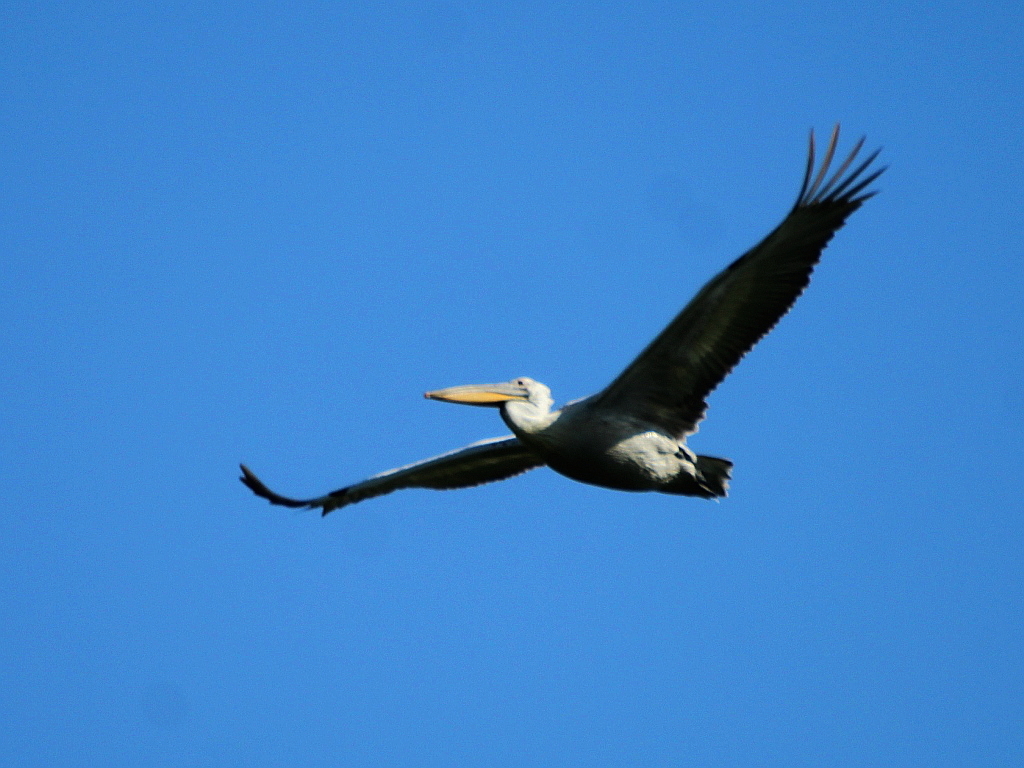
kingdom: Animalia
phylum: Chordata
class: Aves
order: Pelecaniformes
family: Pelecanidae
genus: Pelecanus
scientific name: Pelecanus crispus
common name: Dalmatian pelican
